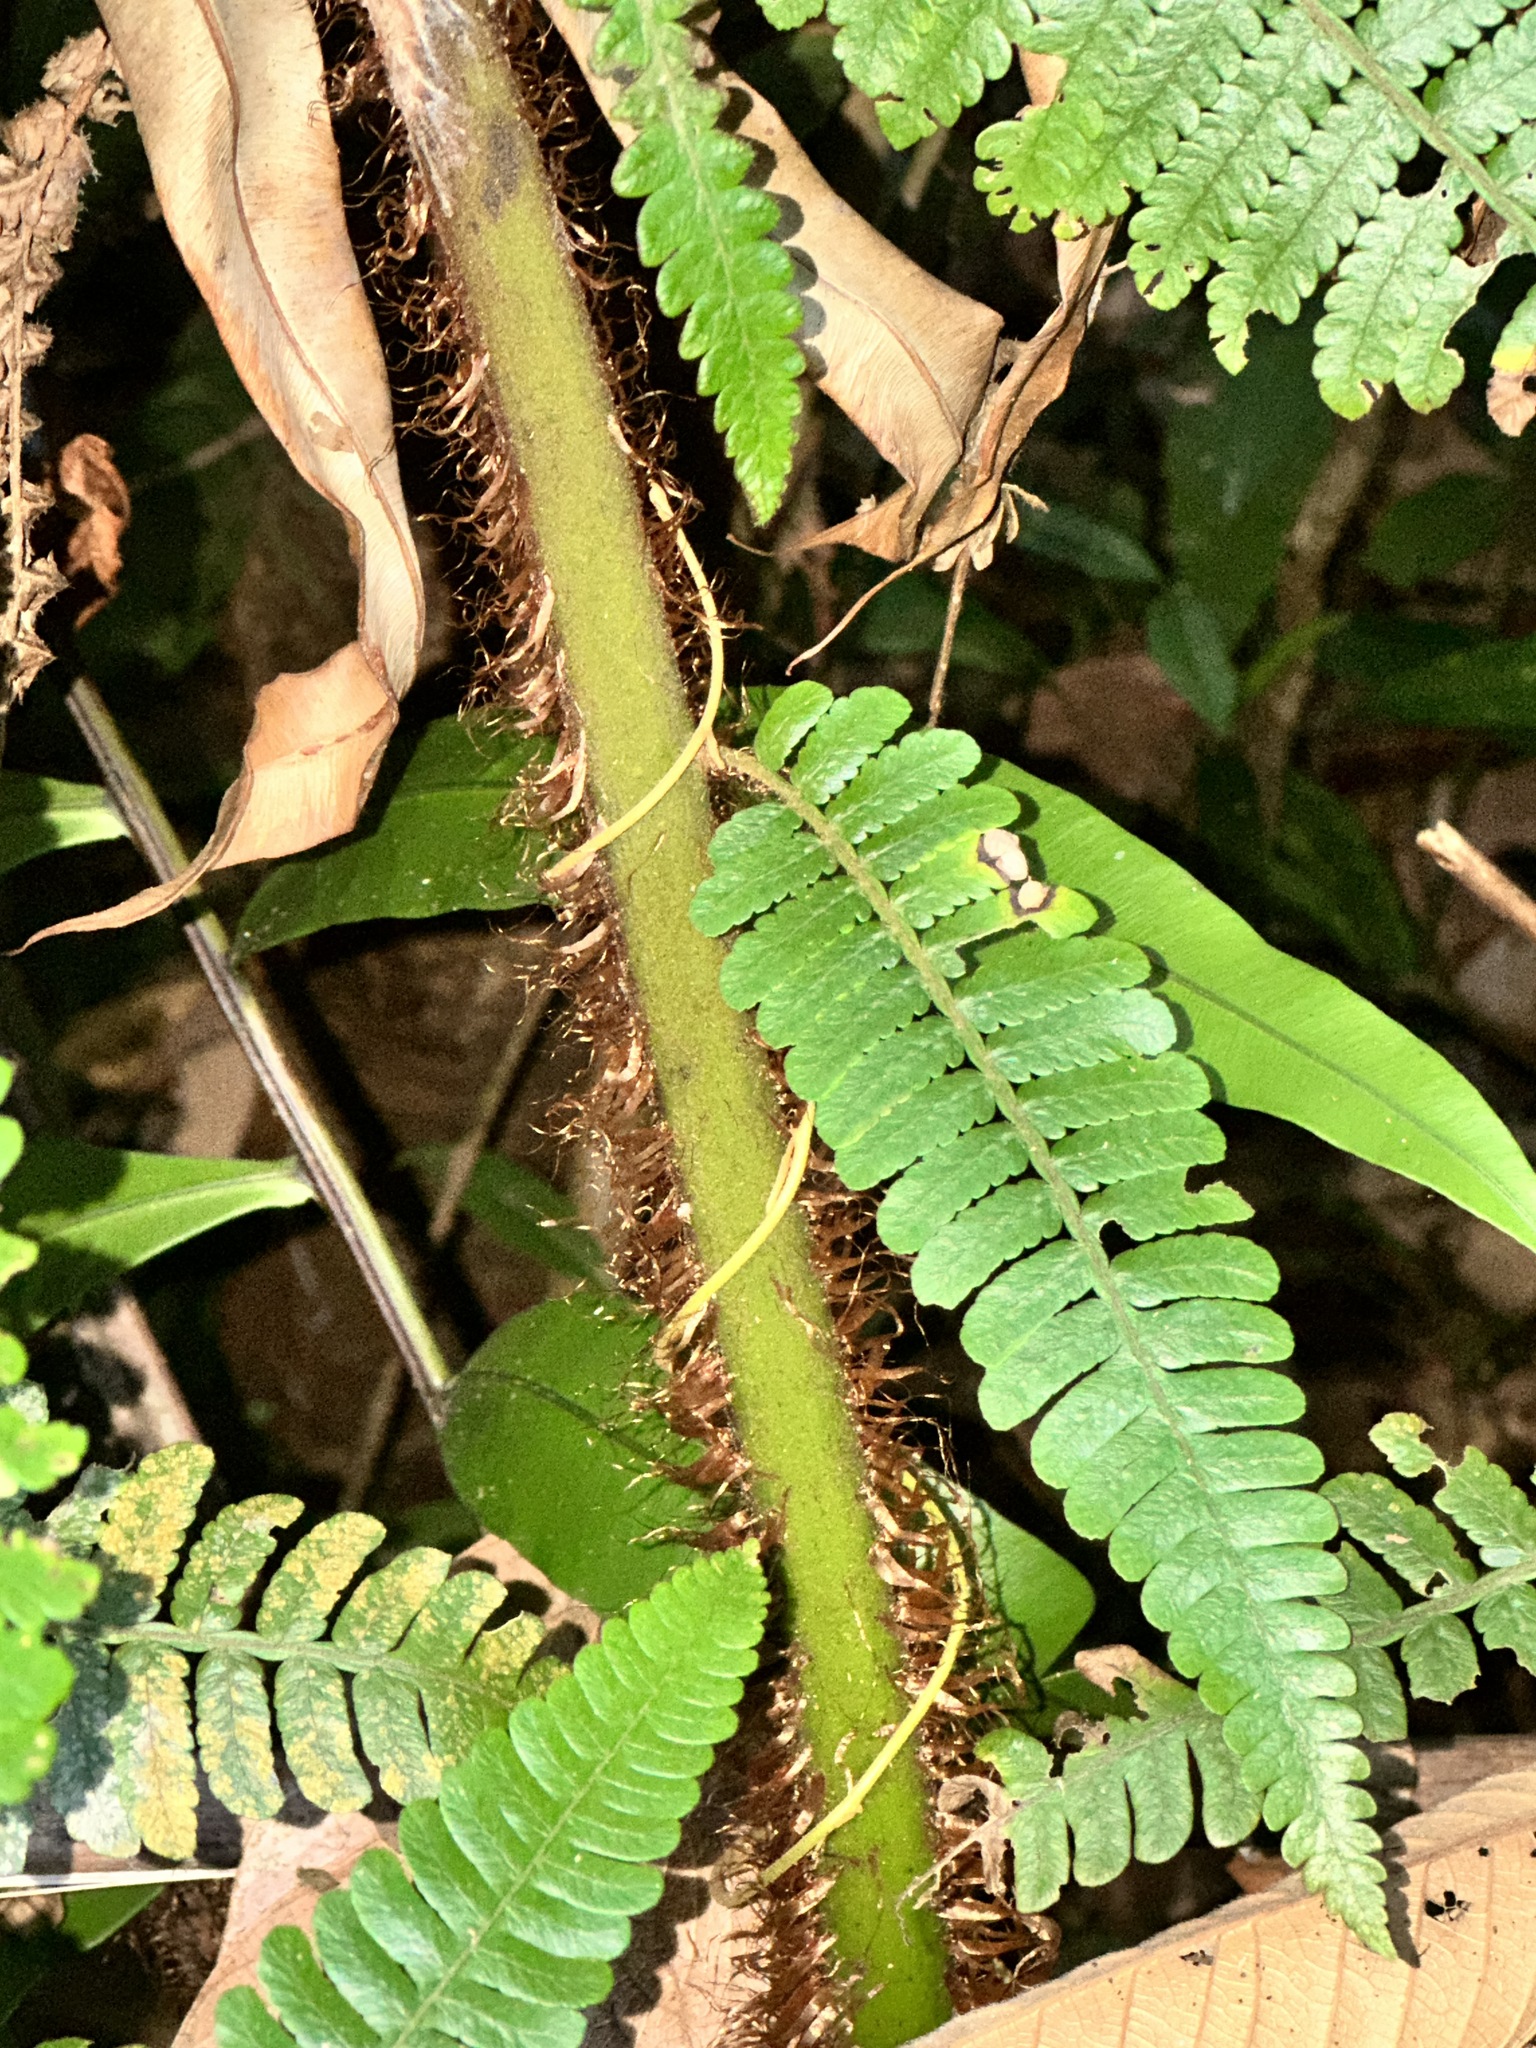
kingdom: Plantae
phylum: Tracheophyta
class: Polypodiopsida
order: Cyatheales
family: Cyatheaceae
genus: Sphaeropteris
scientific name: Sphaeropteris squamulata
